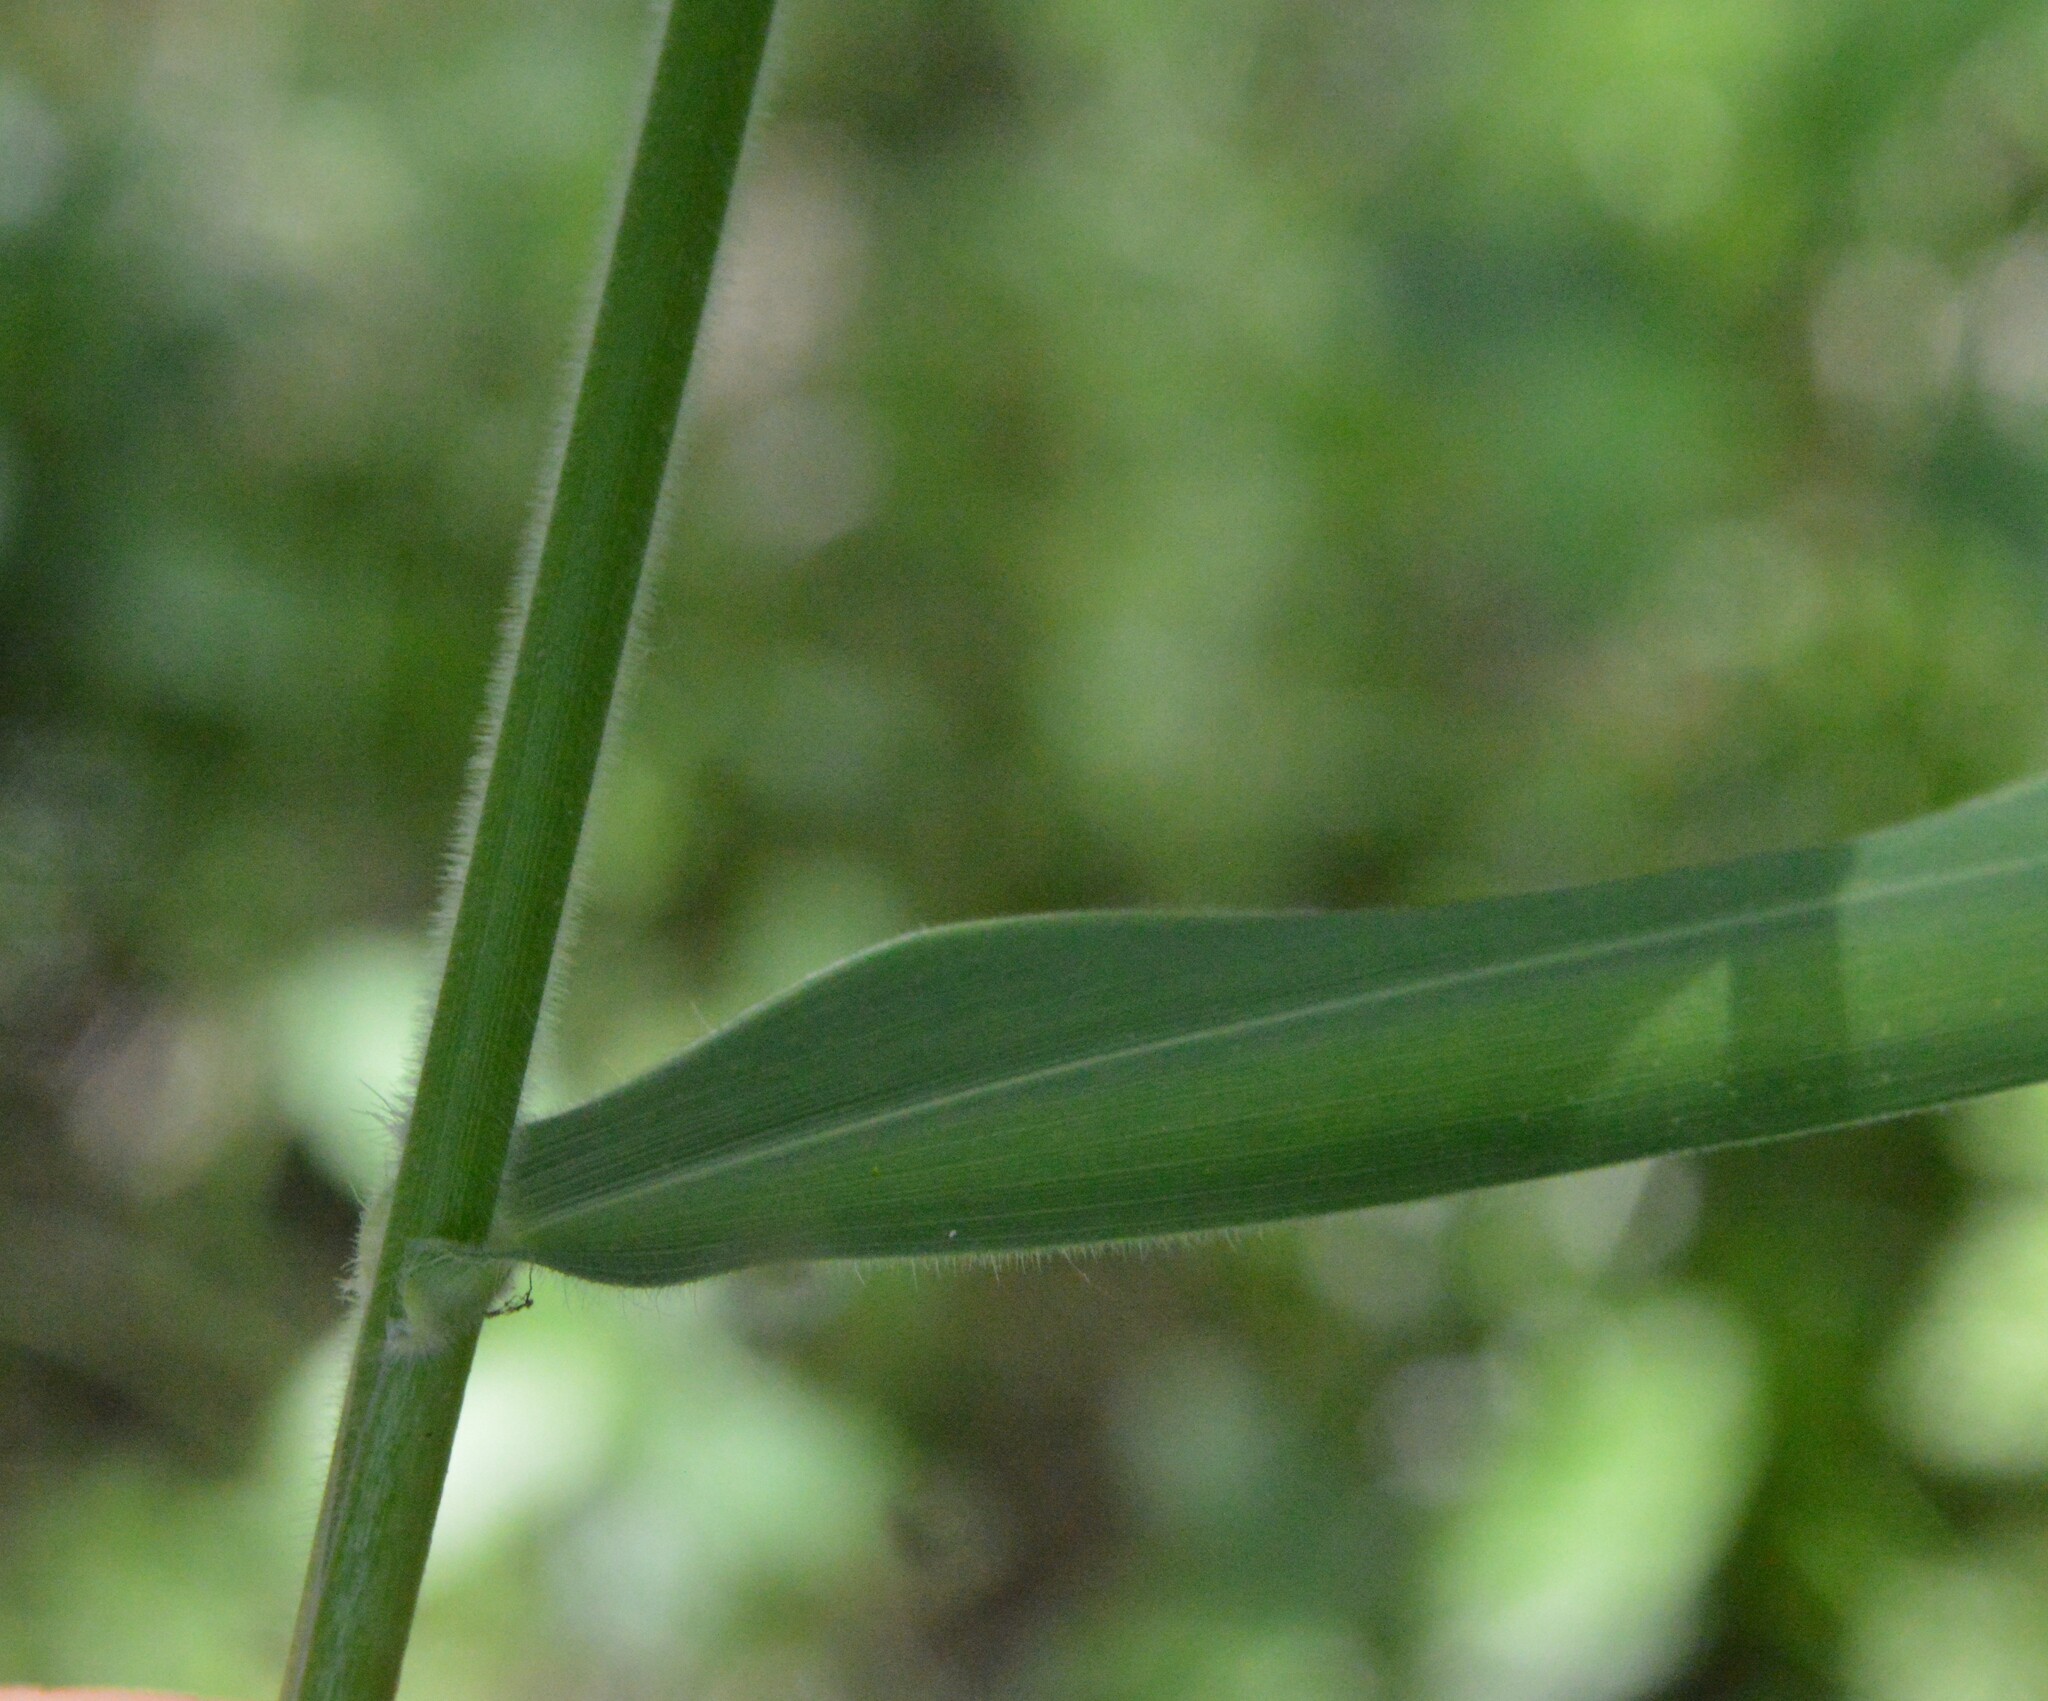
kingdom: Plantae
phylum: Tracheophyta
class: Liliopsida
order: Poales
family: Poaceae
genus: Dichanthelium
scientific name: Dichanthelium scoparium
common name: Velvety panic grass
